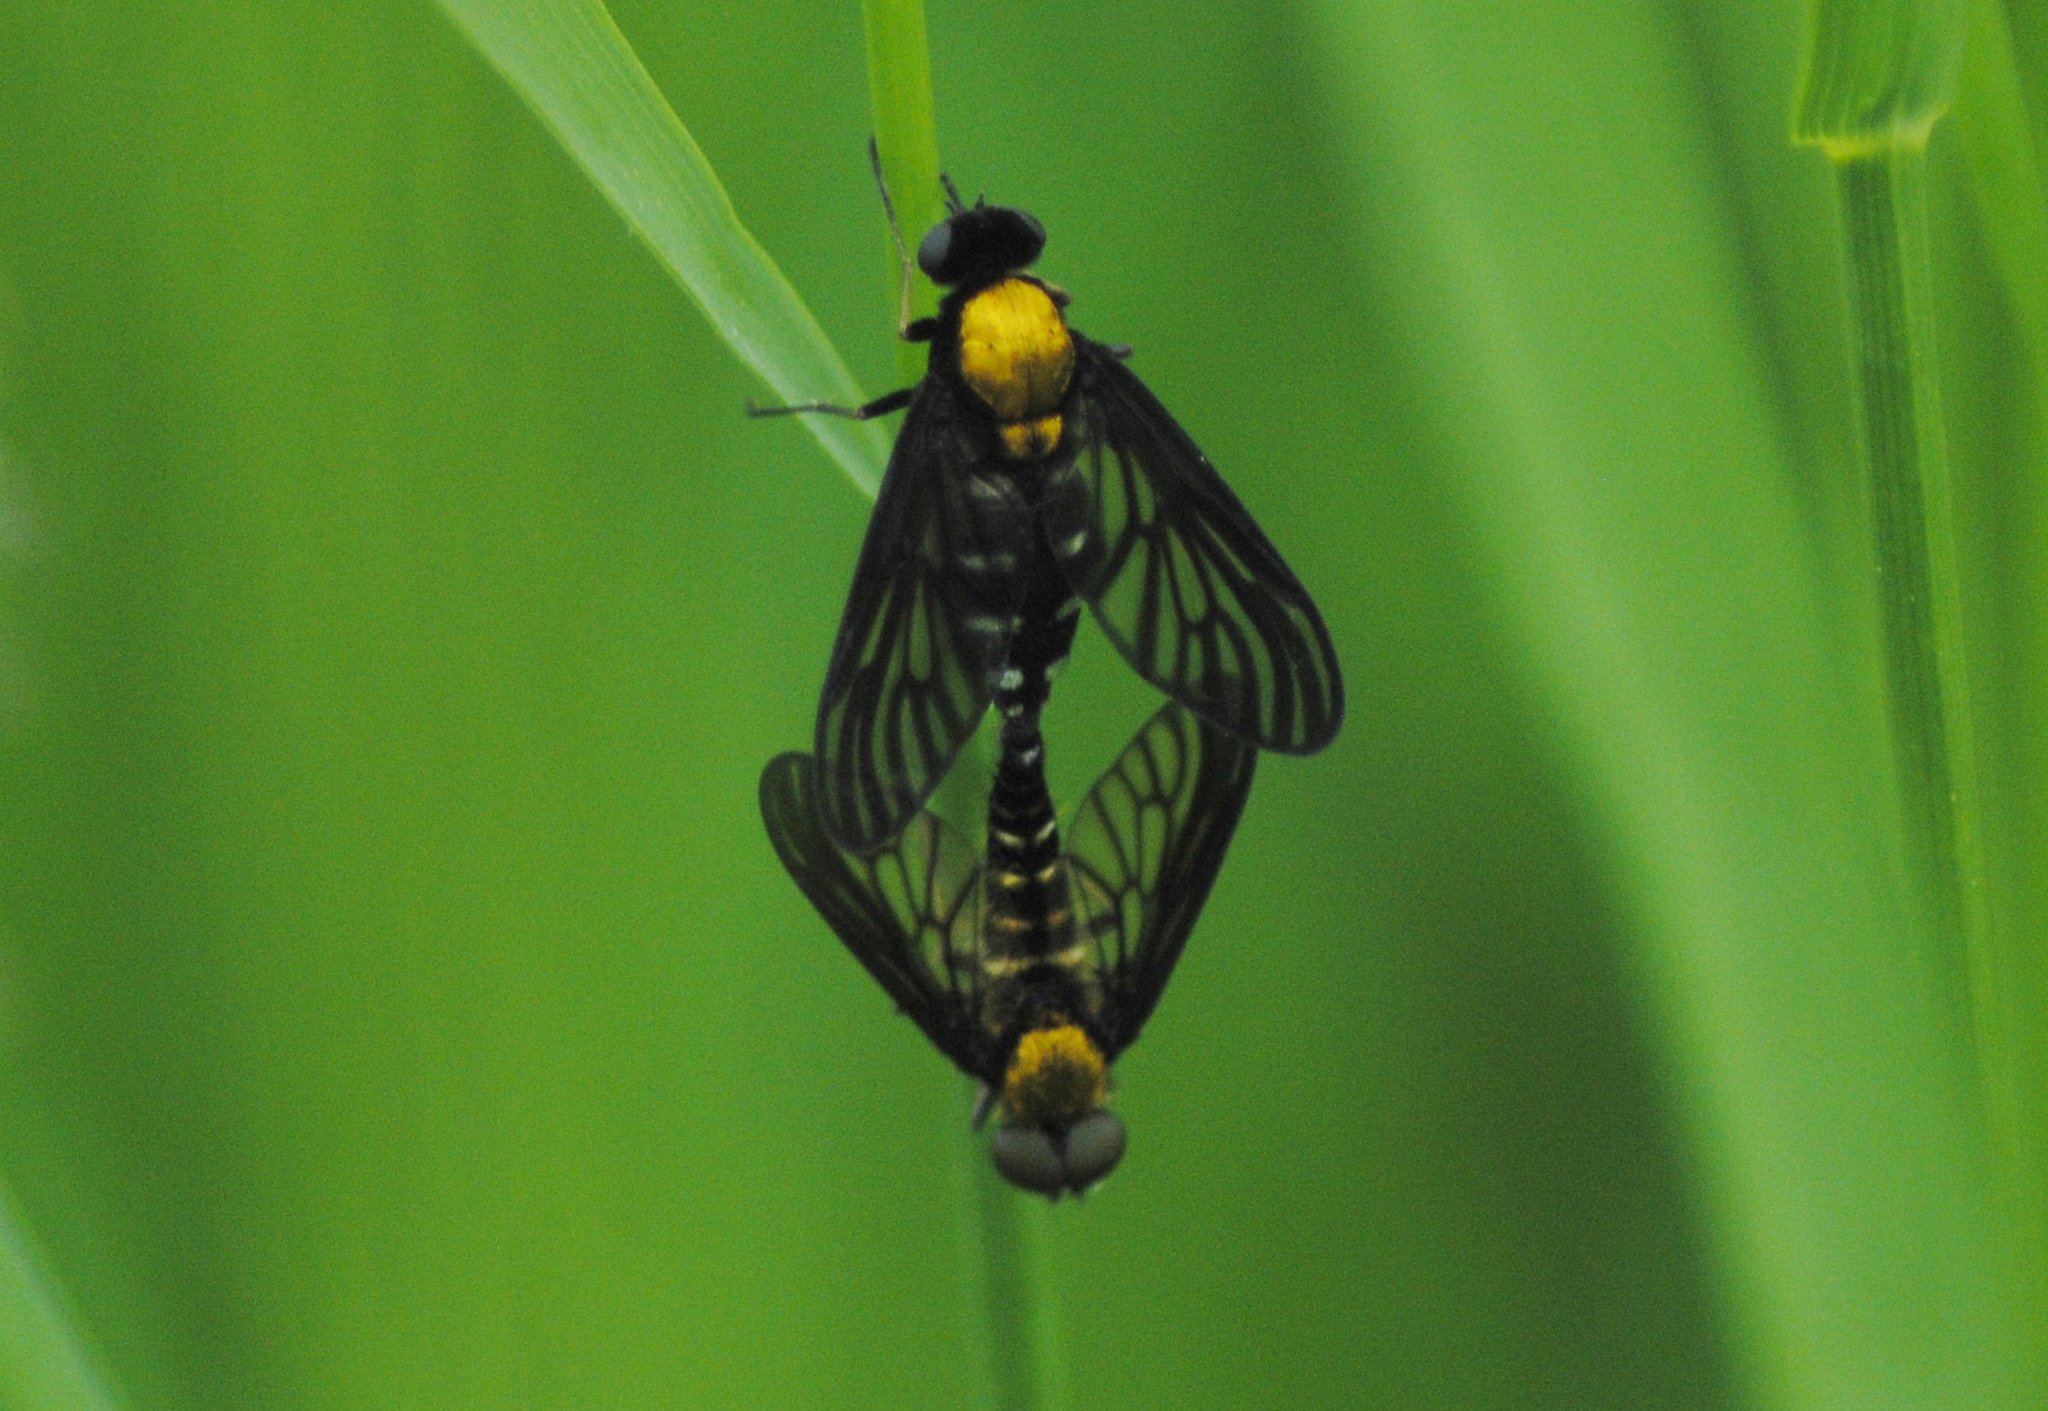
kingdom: Animalia
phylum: Arthropoda
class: Insecta
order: Diptera
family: Rhagionidae
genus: Chrysopilus
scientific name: Chrysopilus thoracicus
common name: Golden-backed snipe fly
